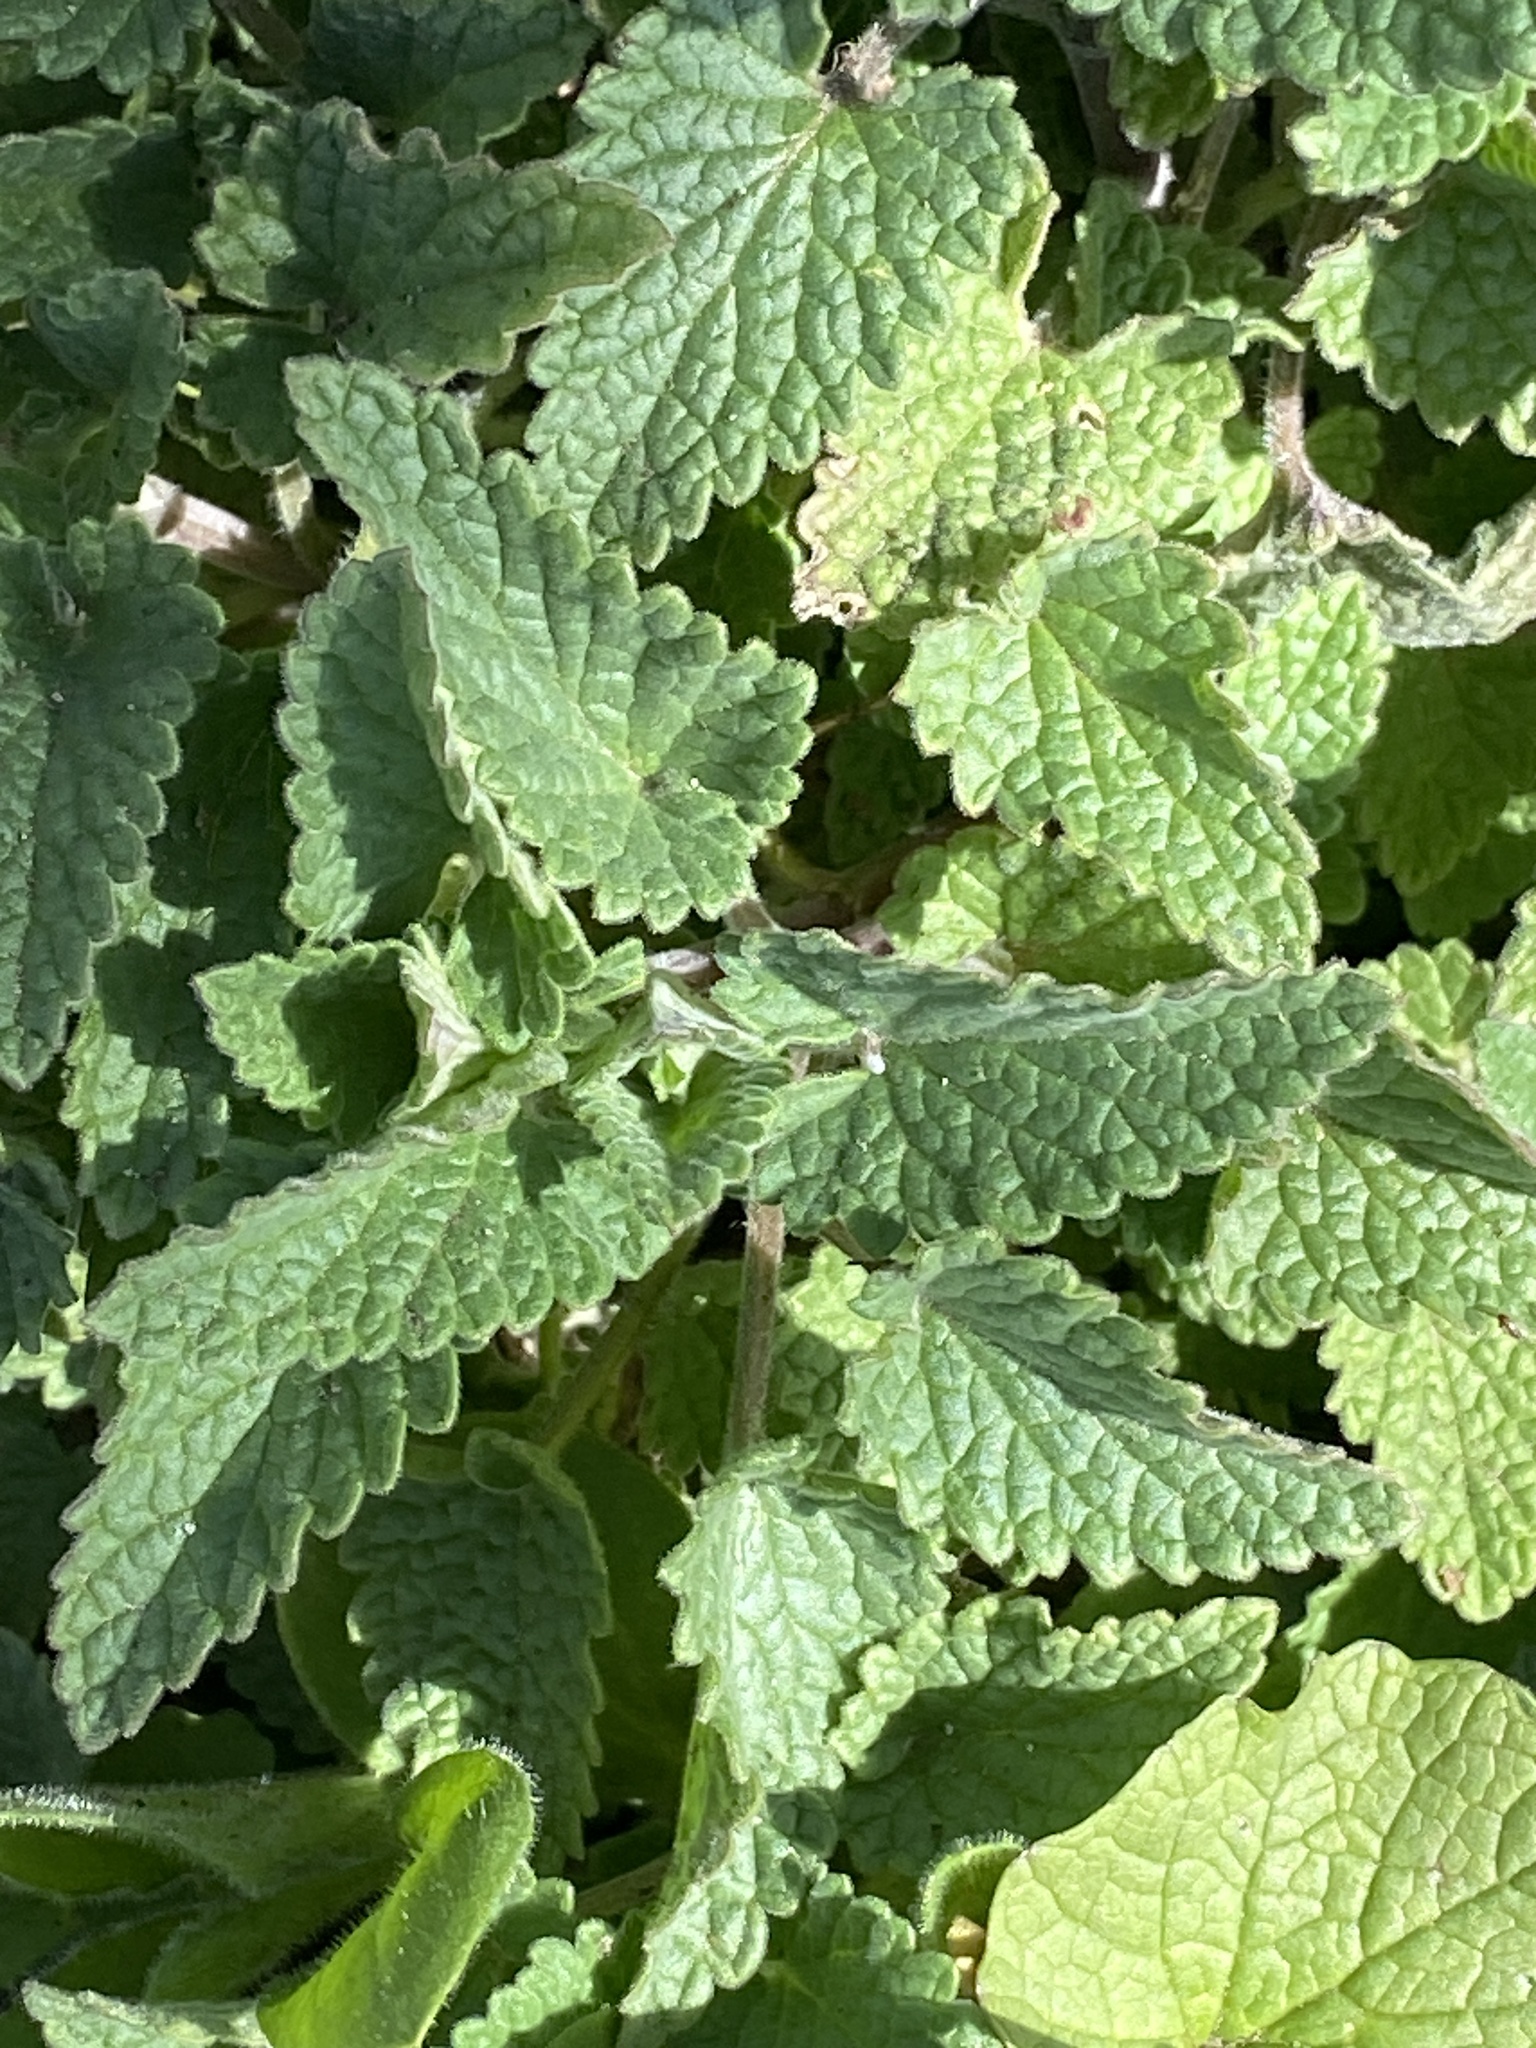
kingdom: Plantae
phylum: Tracheophyta
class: Magnoliopsida
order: Lamiales
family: Lamiaceae
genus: Nepeta
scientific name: Nepeta cataria
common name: Catnip
